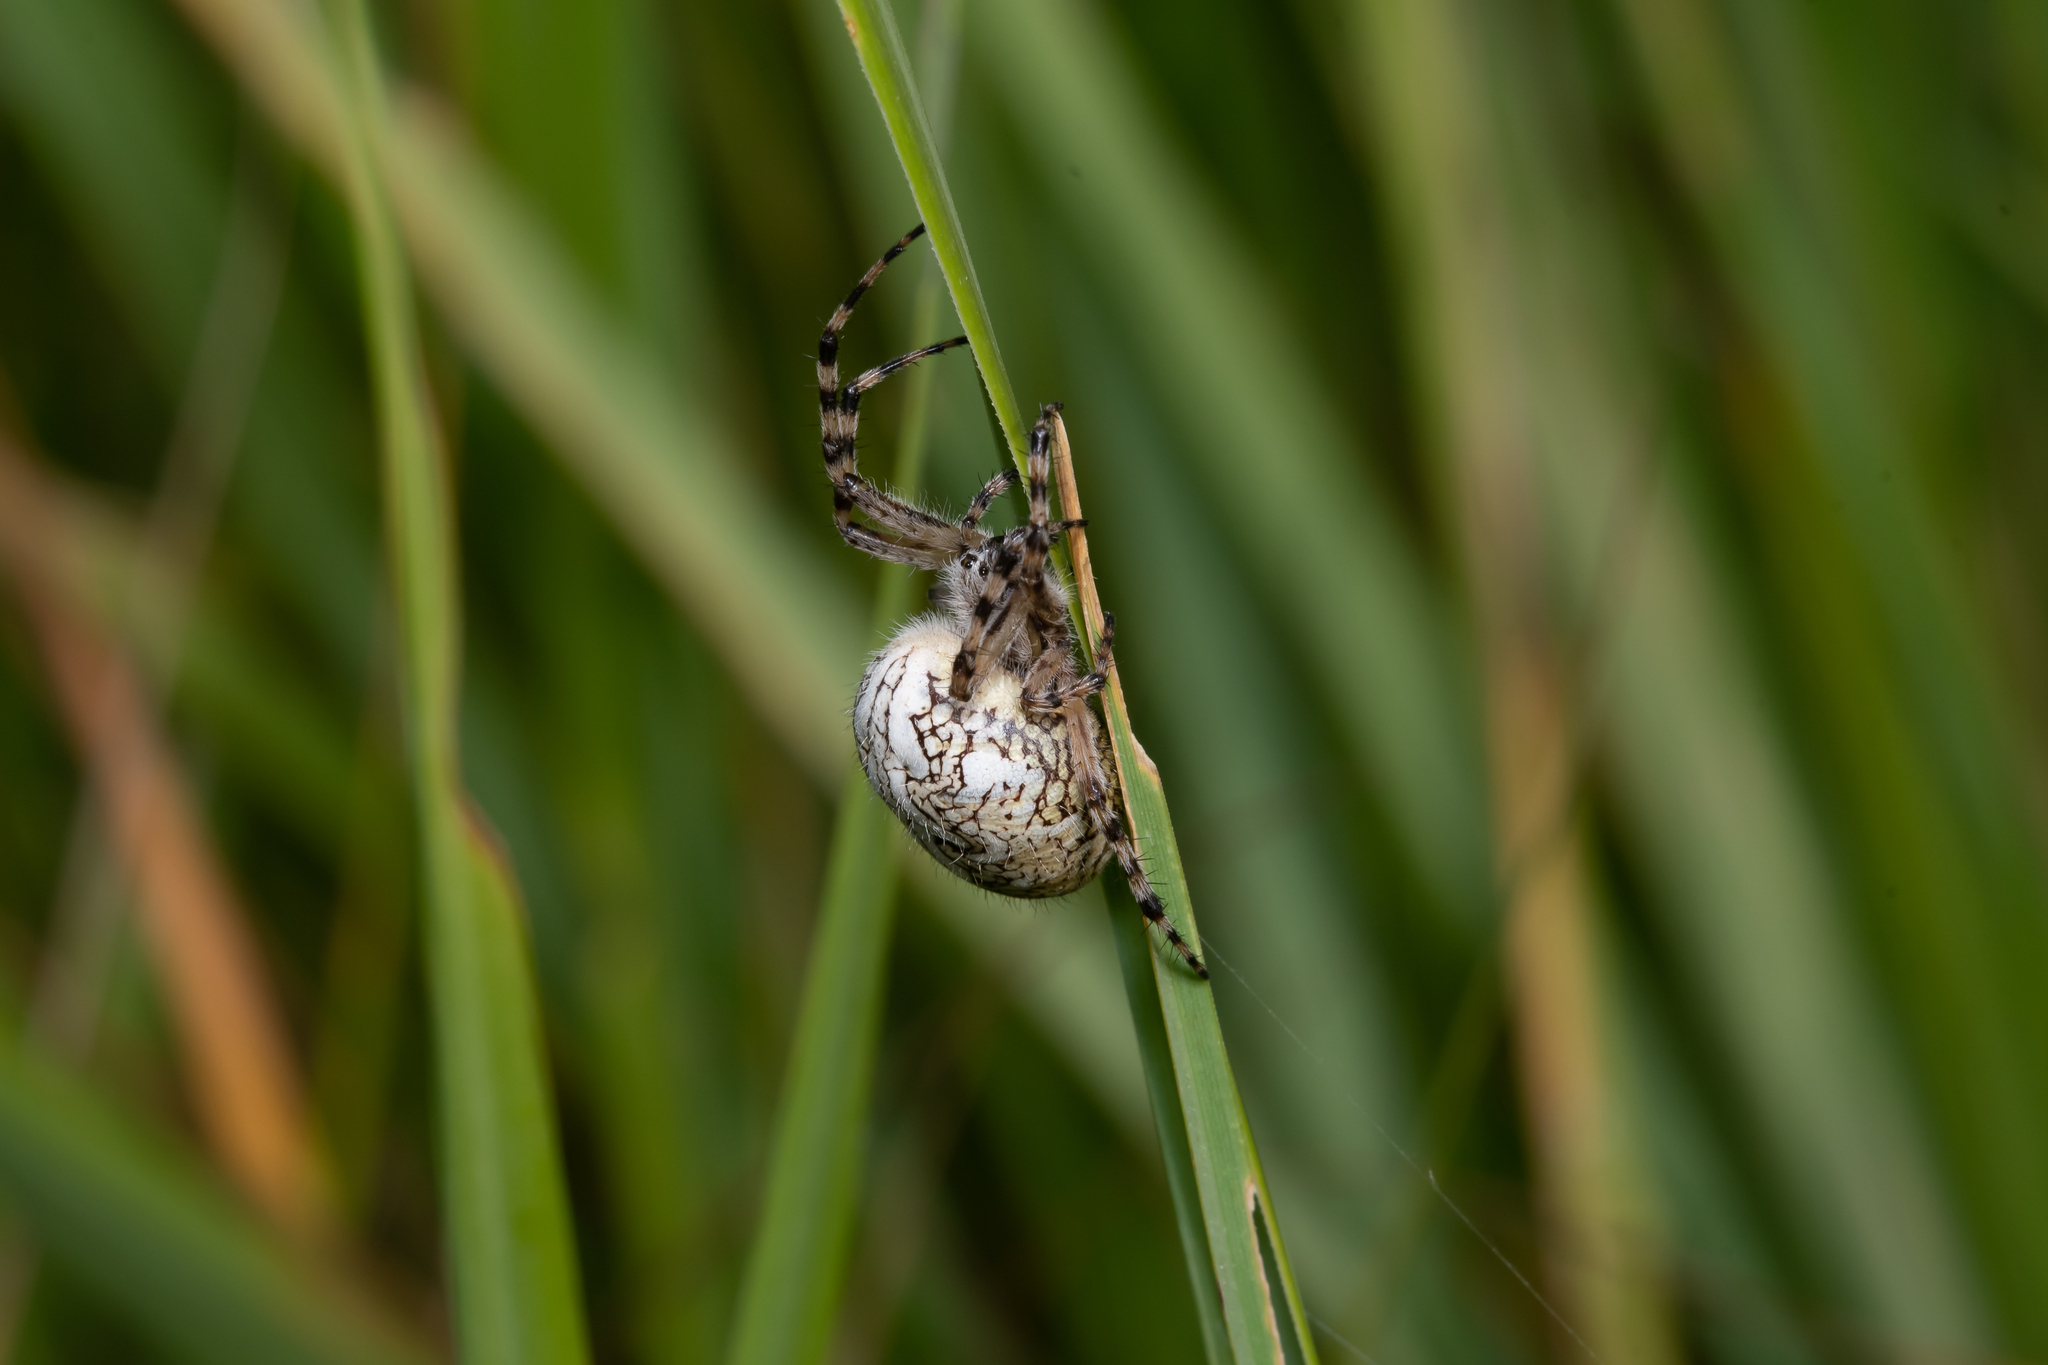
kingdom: Animalia
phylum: Arthropoda
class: Arachnida
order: Araneae
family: Araneidae
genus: Aculepeira
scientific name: Aculepeira ceropegia
